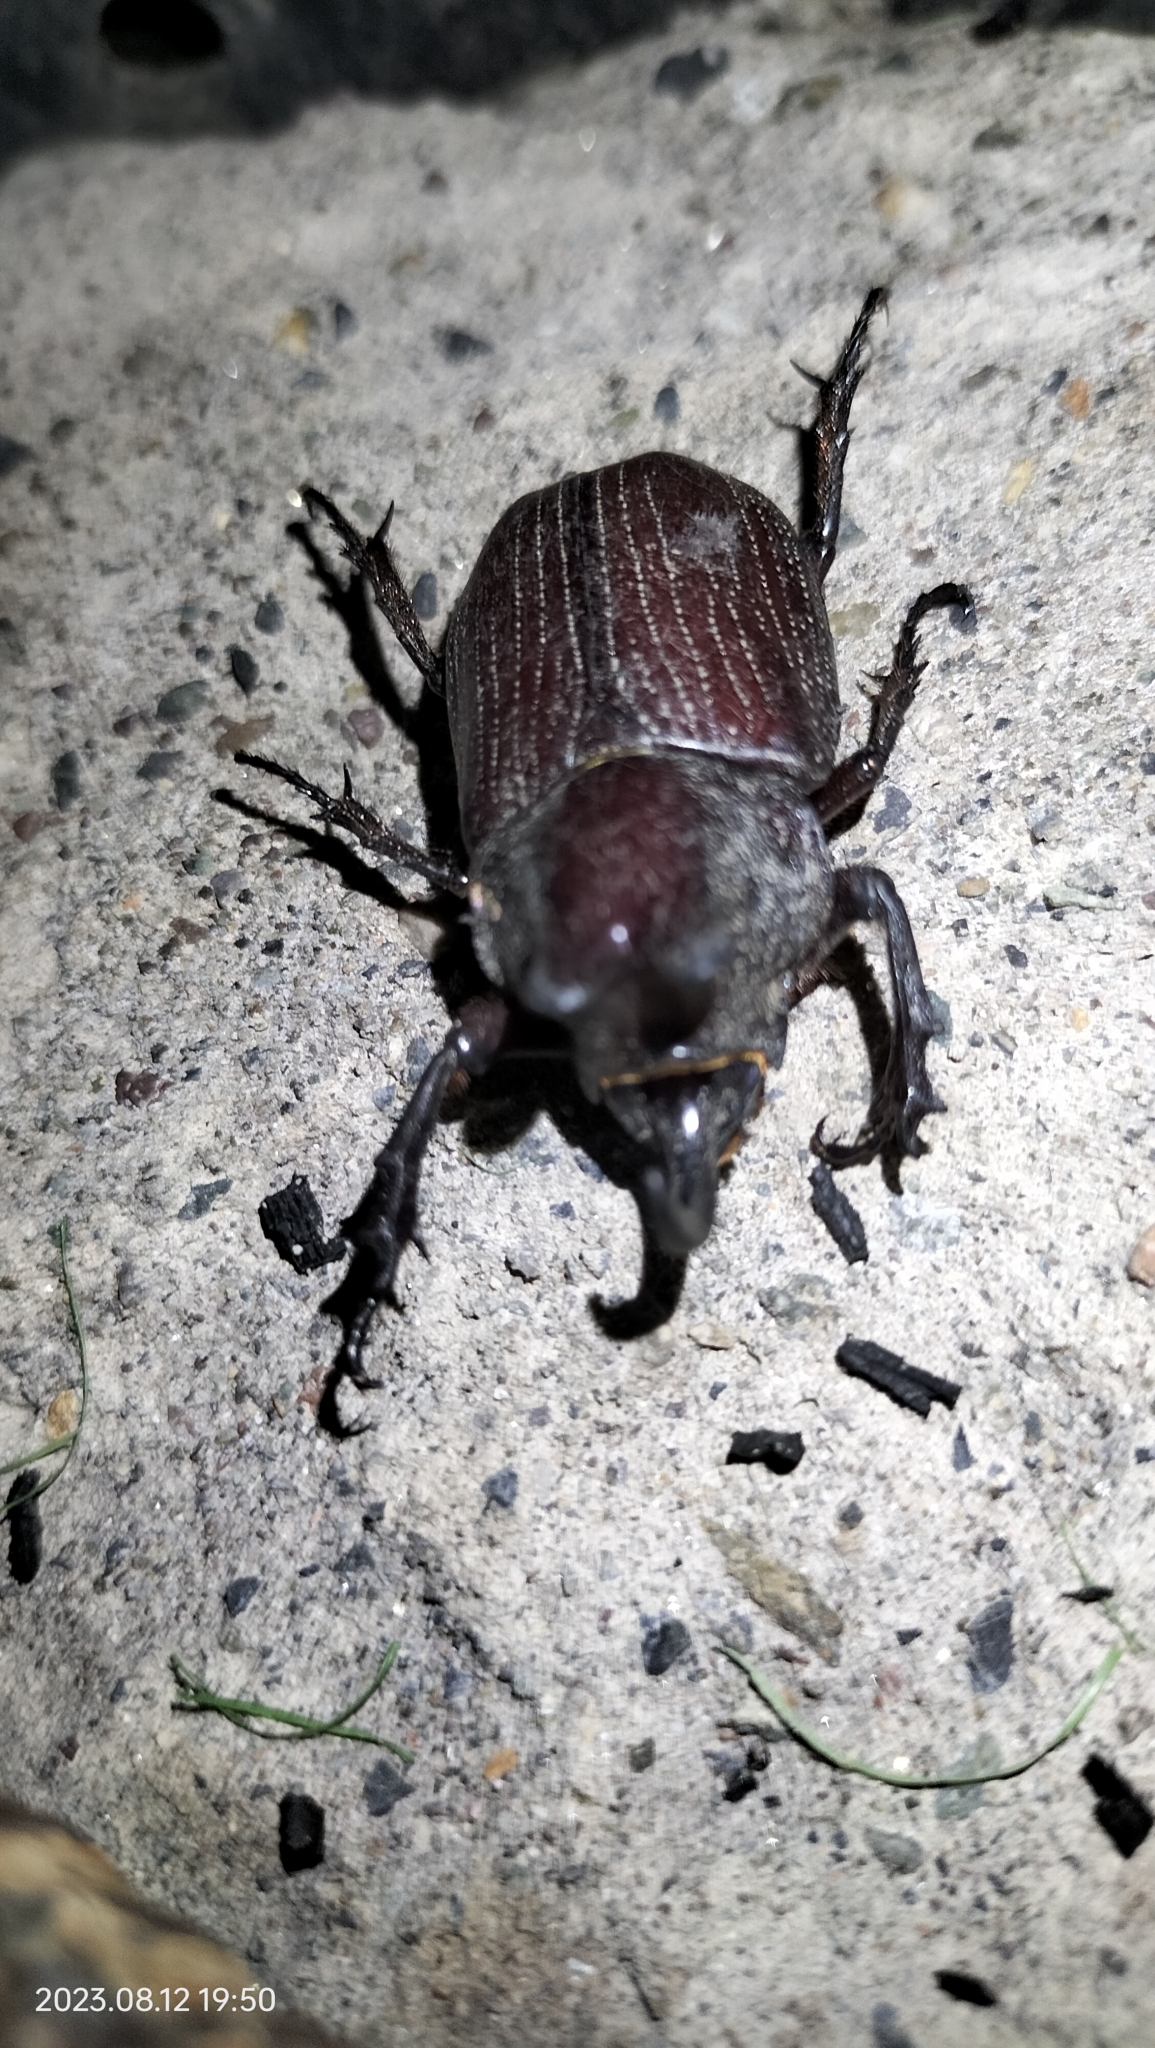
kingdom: Animalia
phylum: Arthropoda
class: Insecta
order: Coleoptera
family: Scarabaeidae
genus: Coelosis
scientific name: Coelosis biloba
